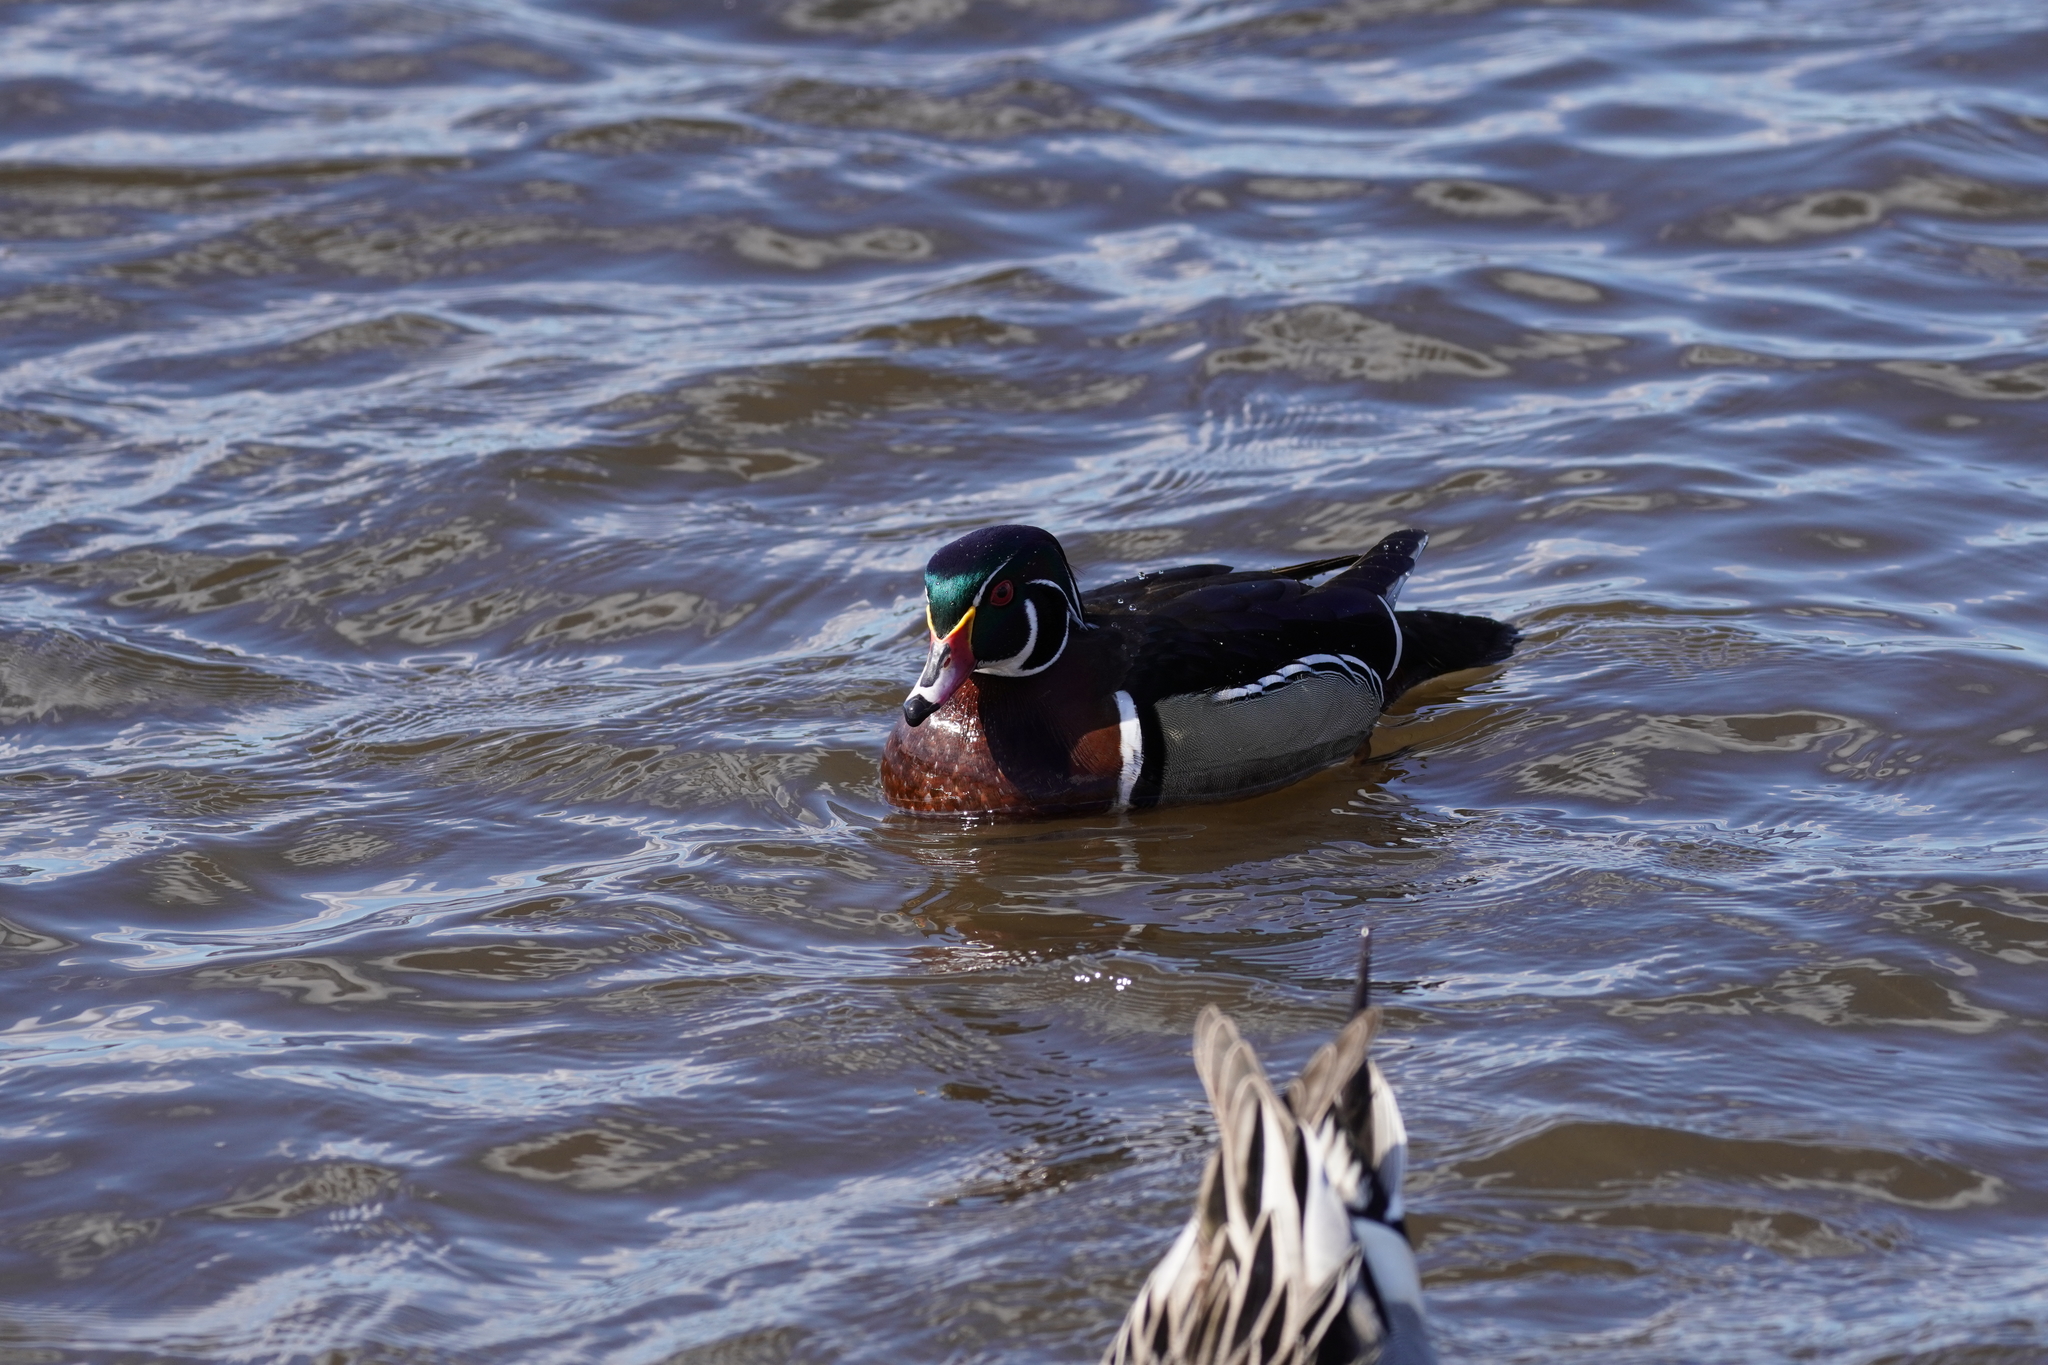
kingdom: Animalia
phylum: Chordata
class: Aves
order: Anseriformes
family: Anatidae
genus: Aix
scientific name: Aix sponsa
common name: Wood duck
